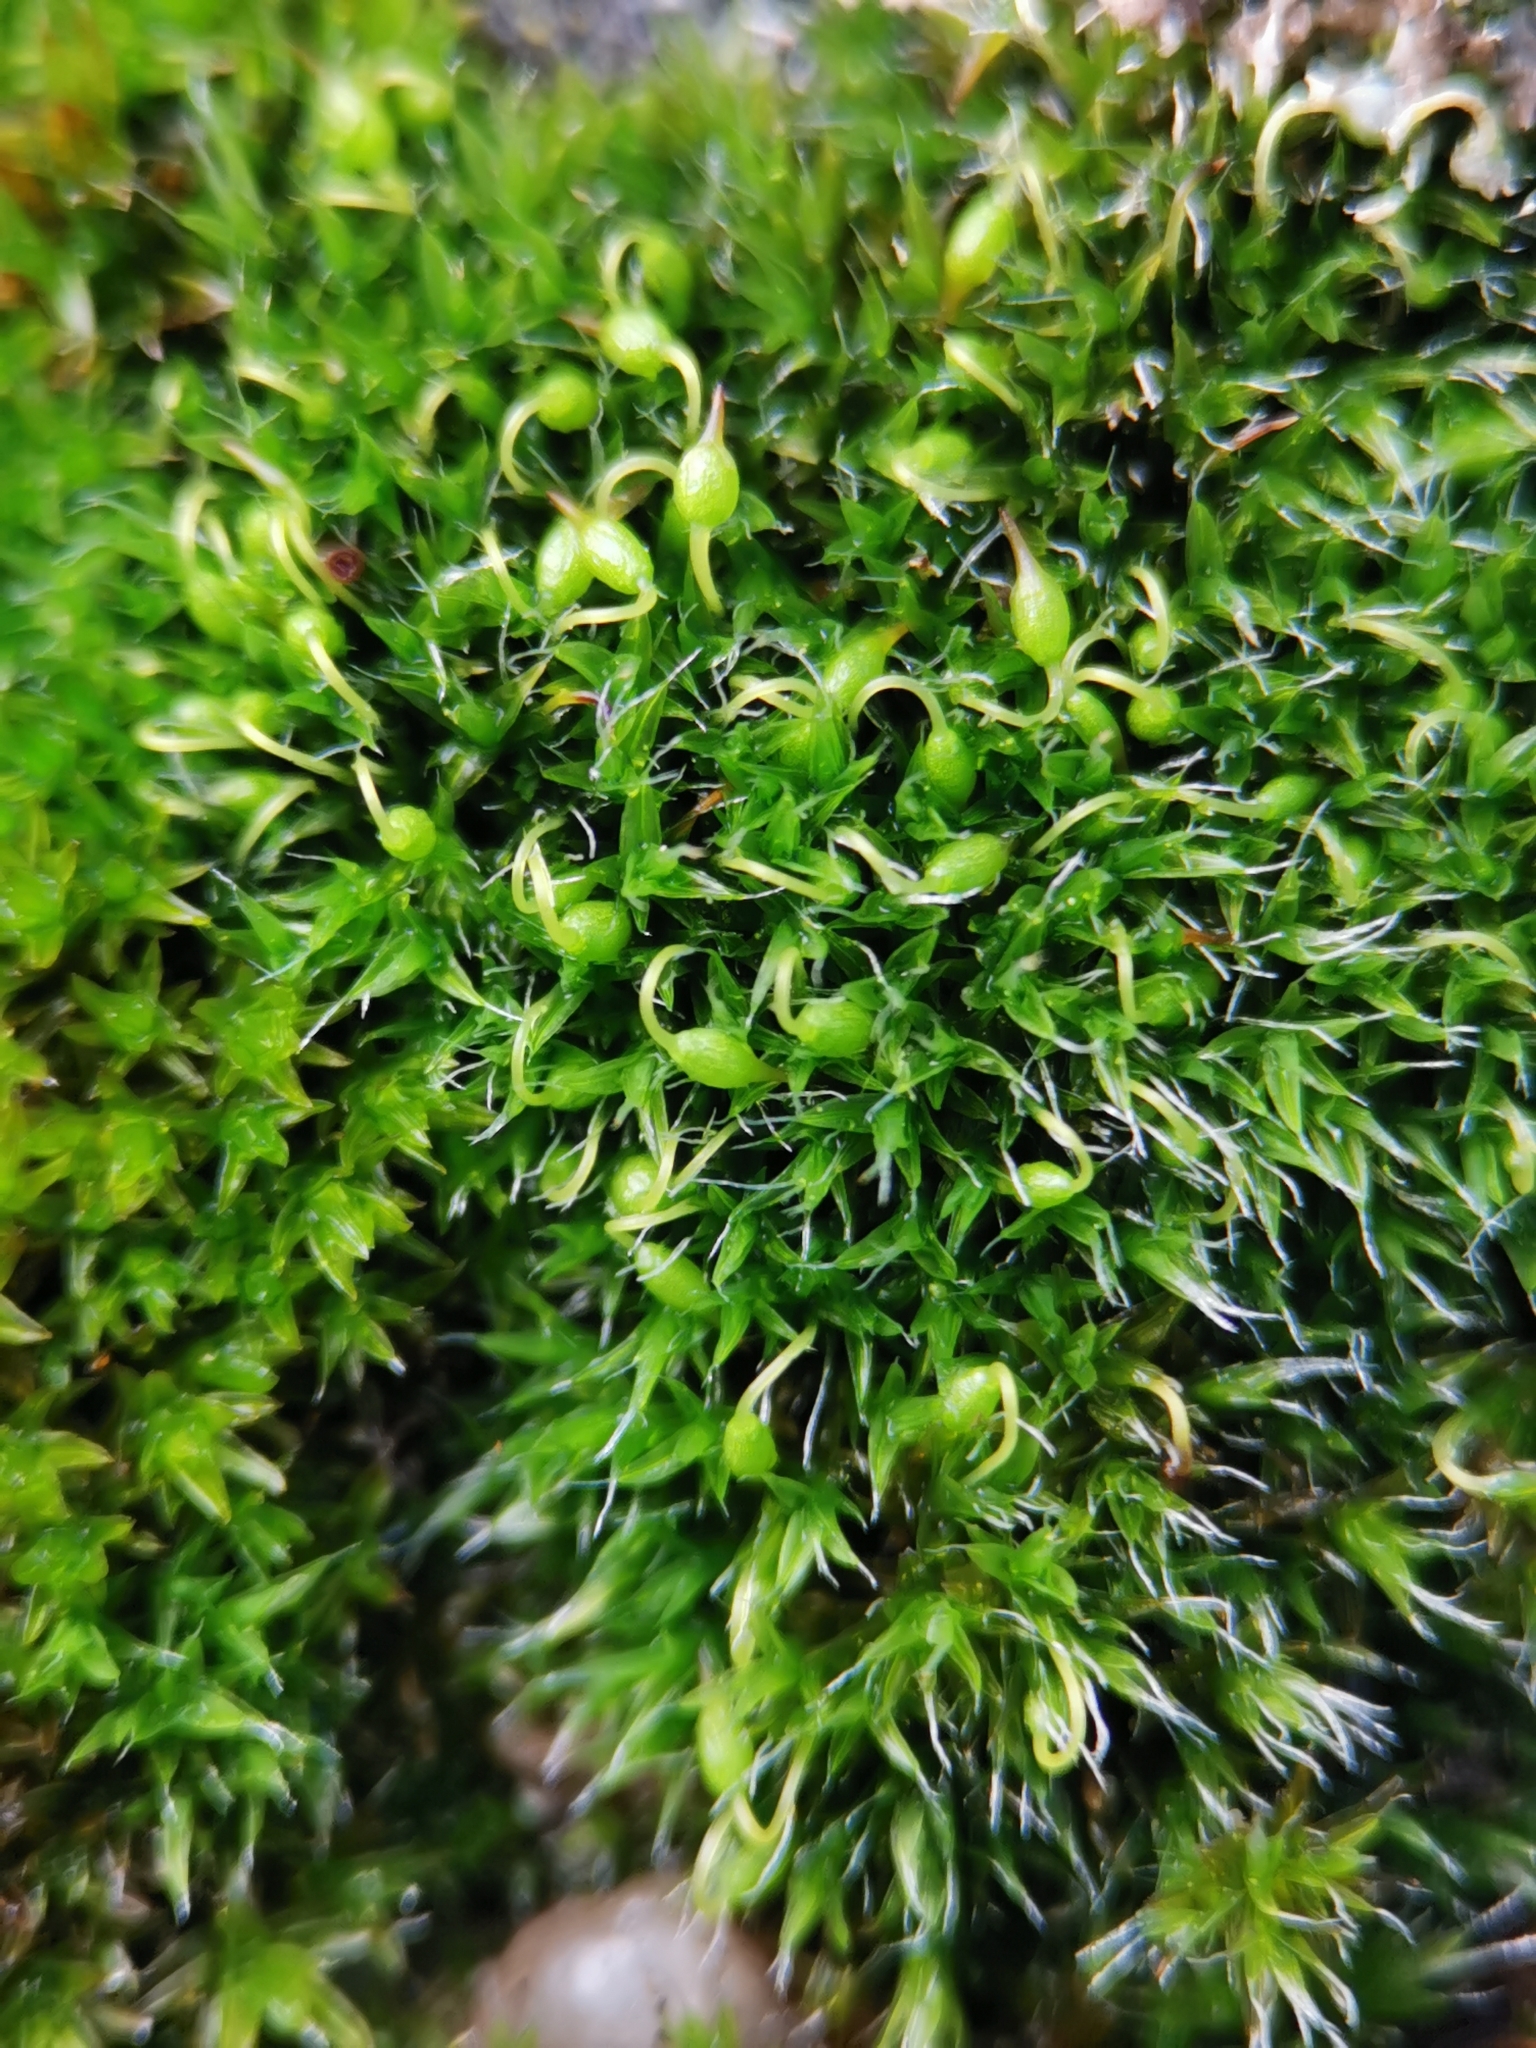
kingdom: Plantae
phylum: Bryophyta
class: Bryopsida
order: Grimmiales
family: Grimmiaceae
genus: Grimmia
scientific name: Grimmia pulvinata
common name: Grey-cushioned grimmia
